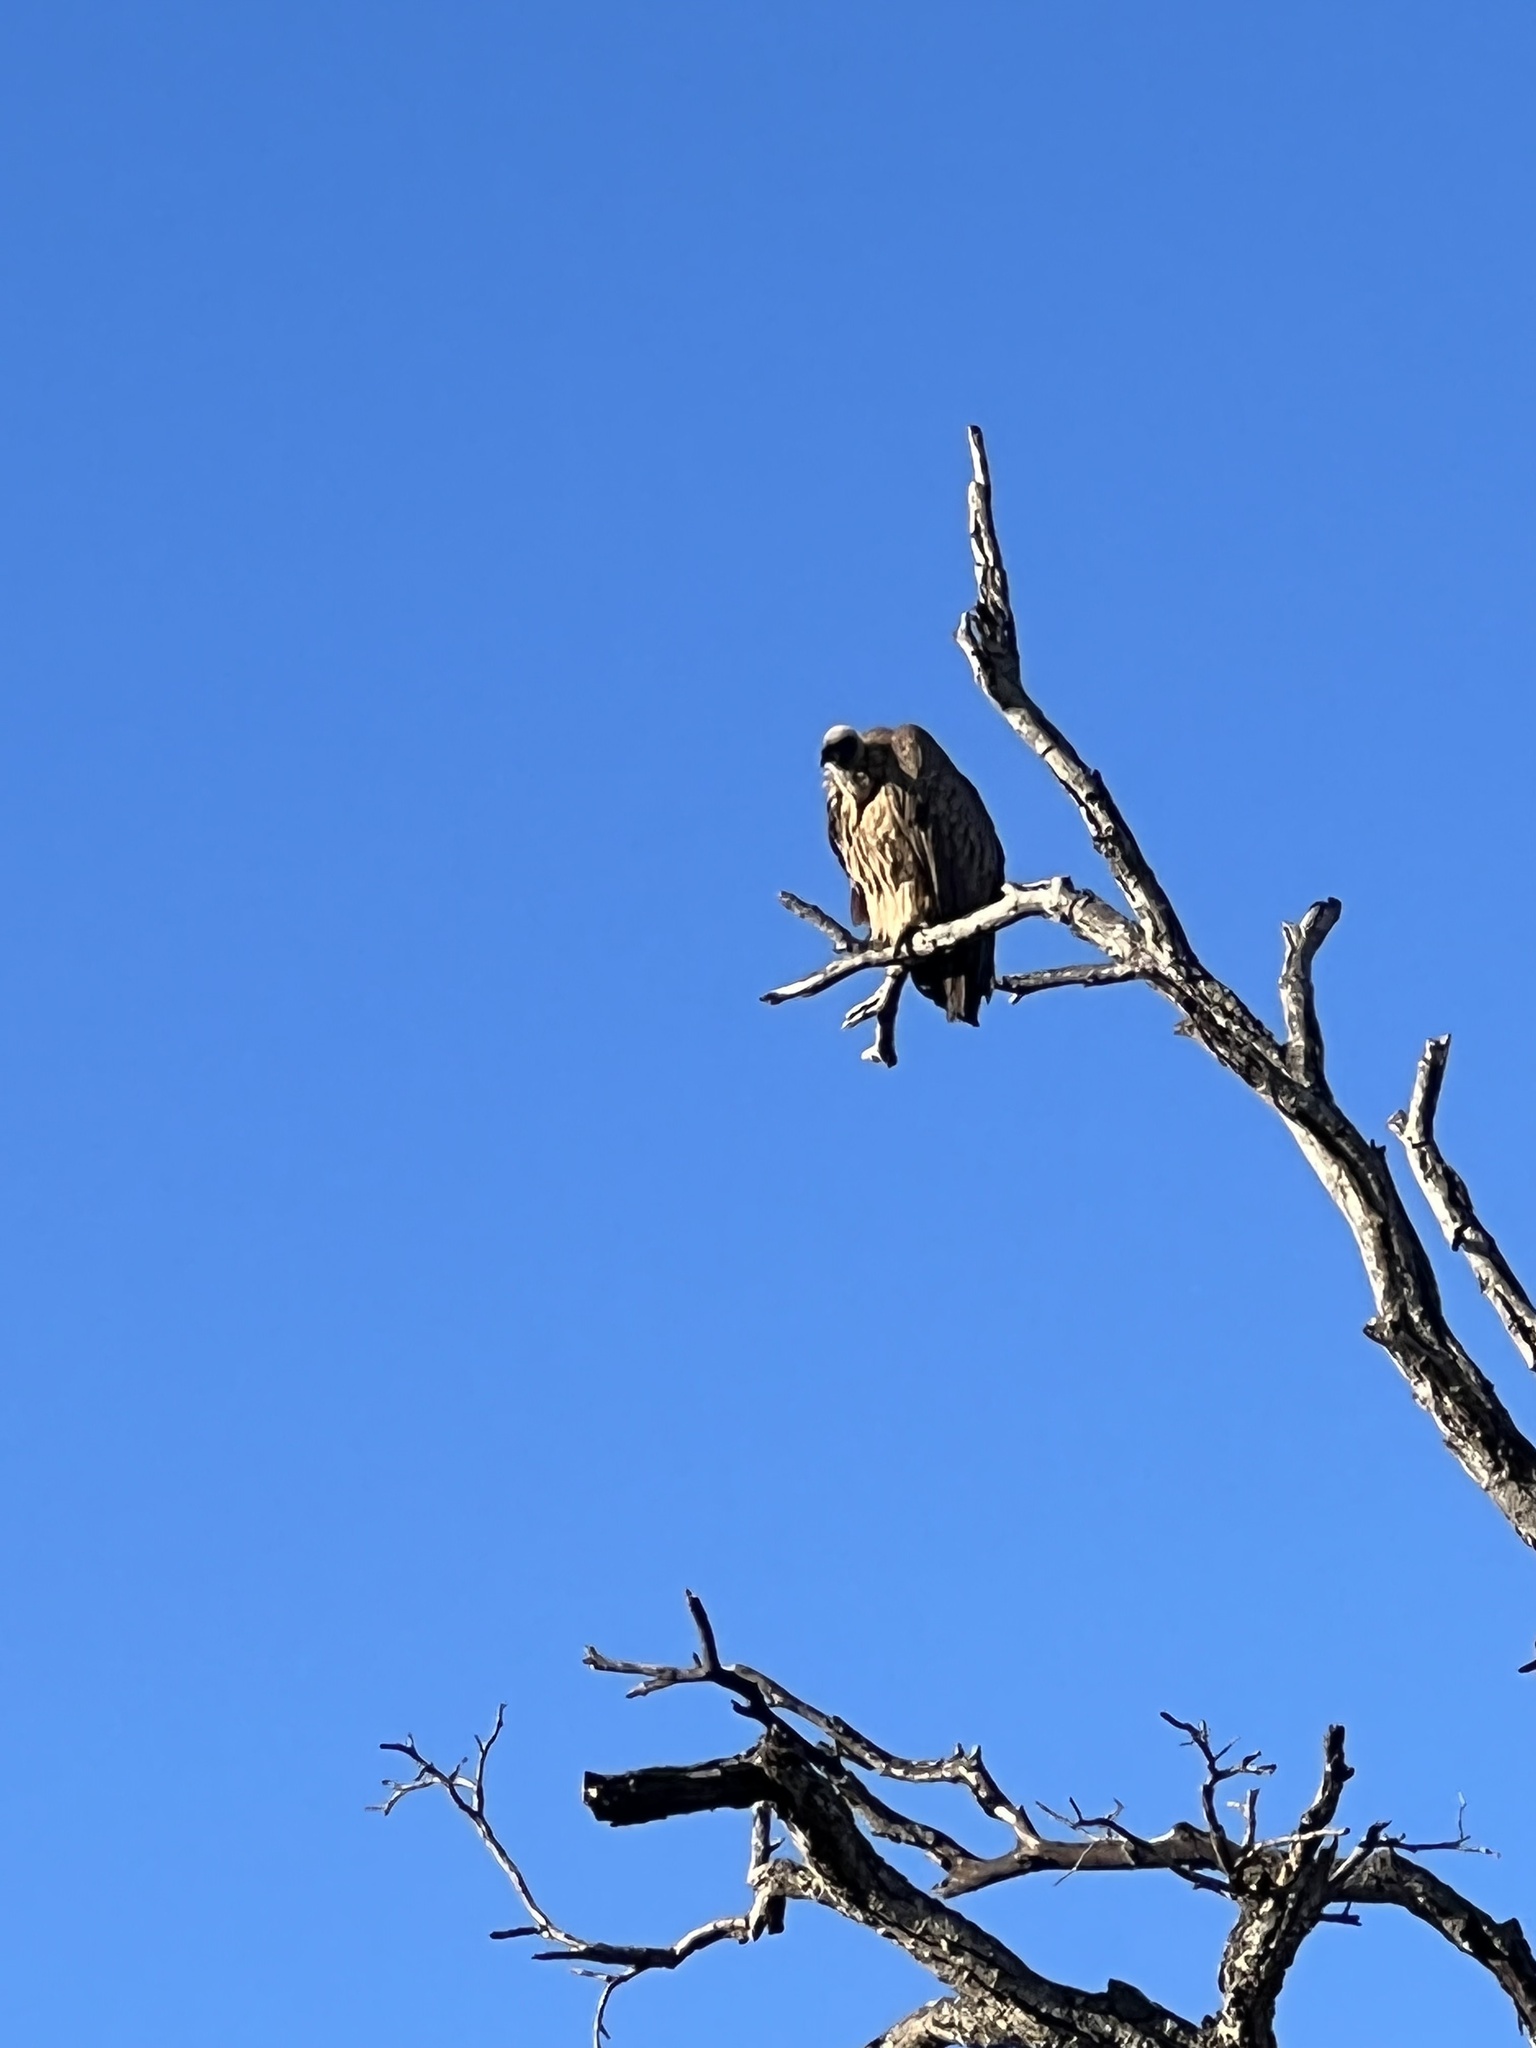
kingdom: Animalia
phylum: Chordata
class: Aves
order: Accipitriformes
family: Accipitridae
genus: Gyps
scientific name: Gyps africanus
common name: White-backed vulture
